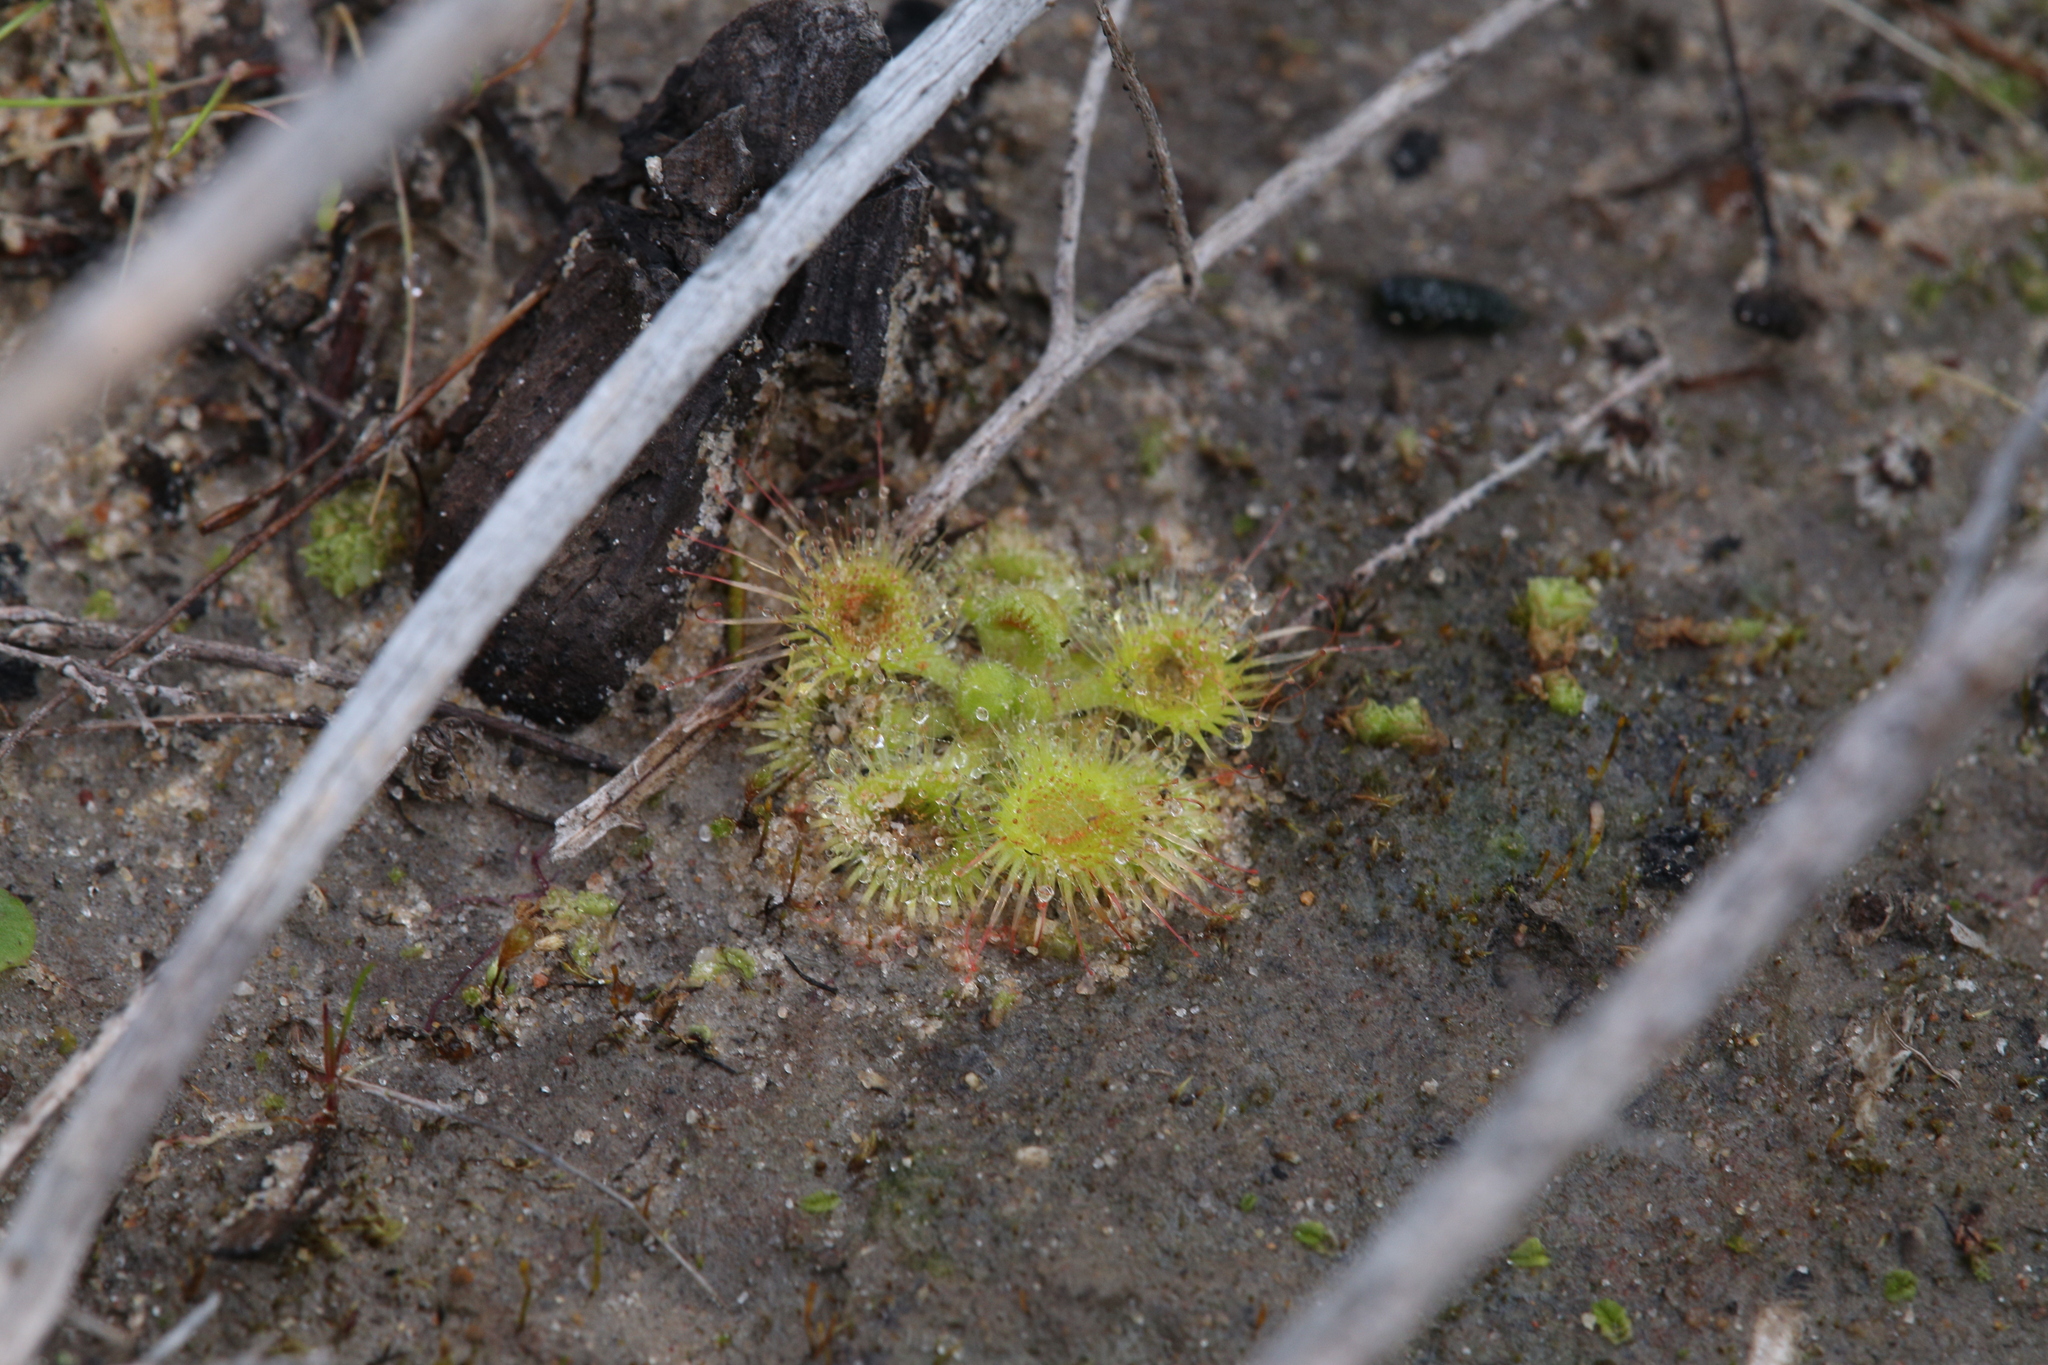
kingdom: Plantae
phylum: Tracheophyta
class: Magnoliopsida
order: Caryophyllales
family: Droseraceae
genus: Drosera
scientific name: Drosera glanduligera
